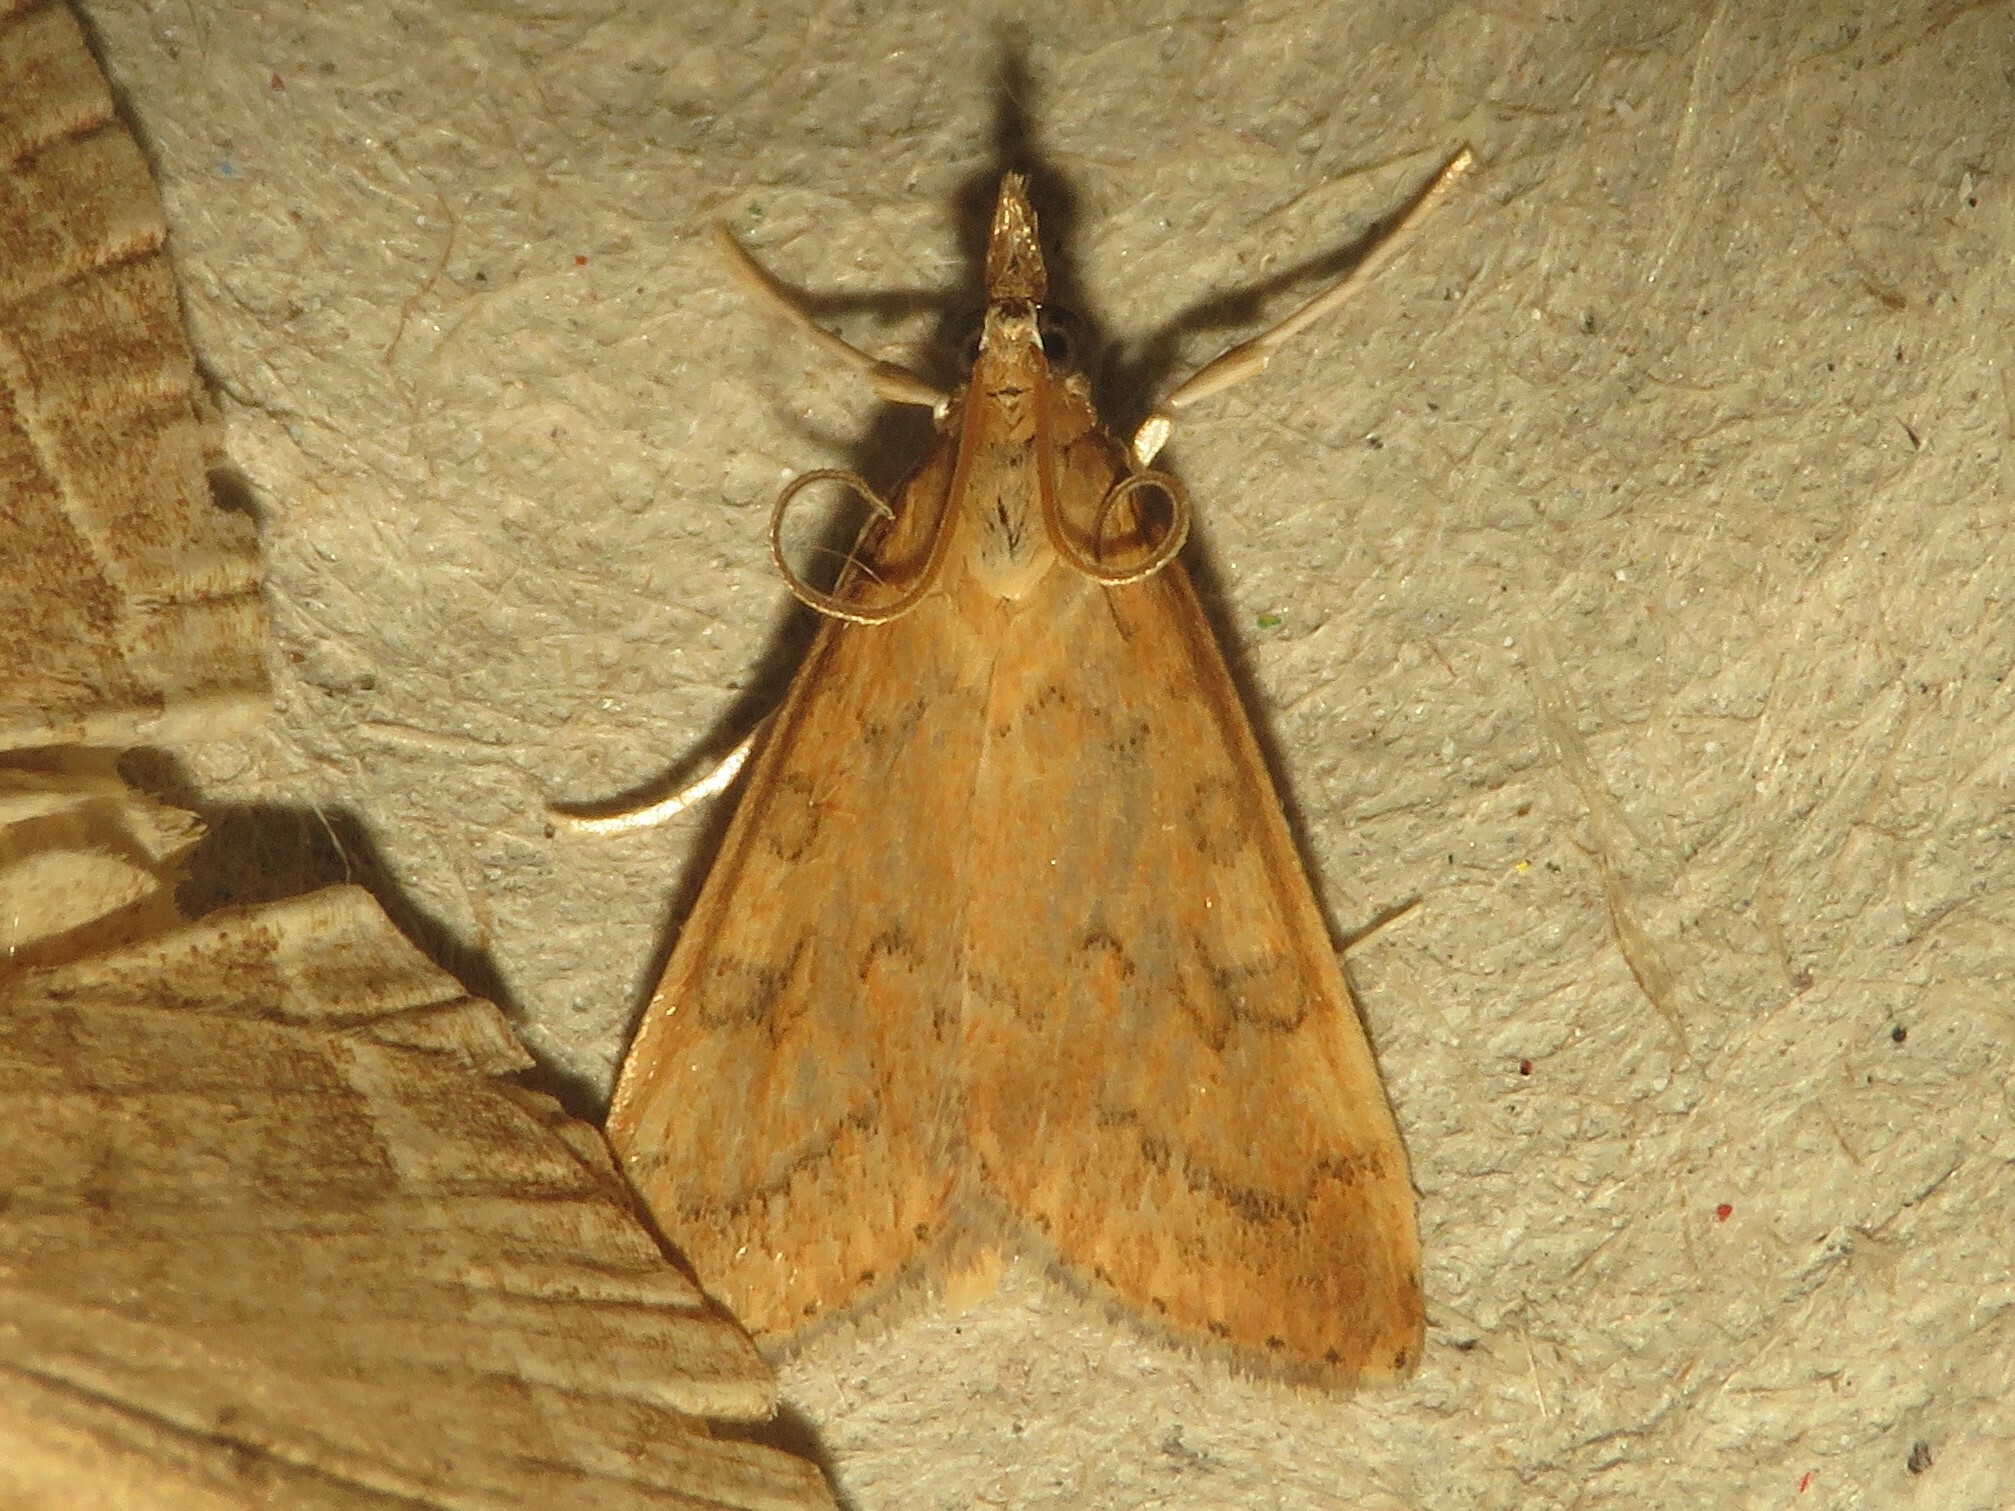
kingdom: Animalia
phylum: Arthropoda
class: Insecta
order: Lepidoptera
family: Crambidae
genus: Udea
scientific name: Udea rubigalis
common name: Celery leaftier moth
